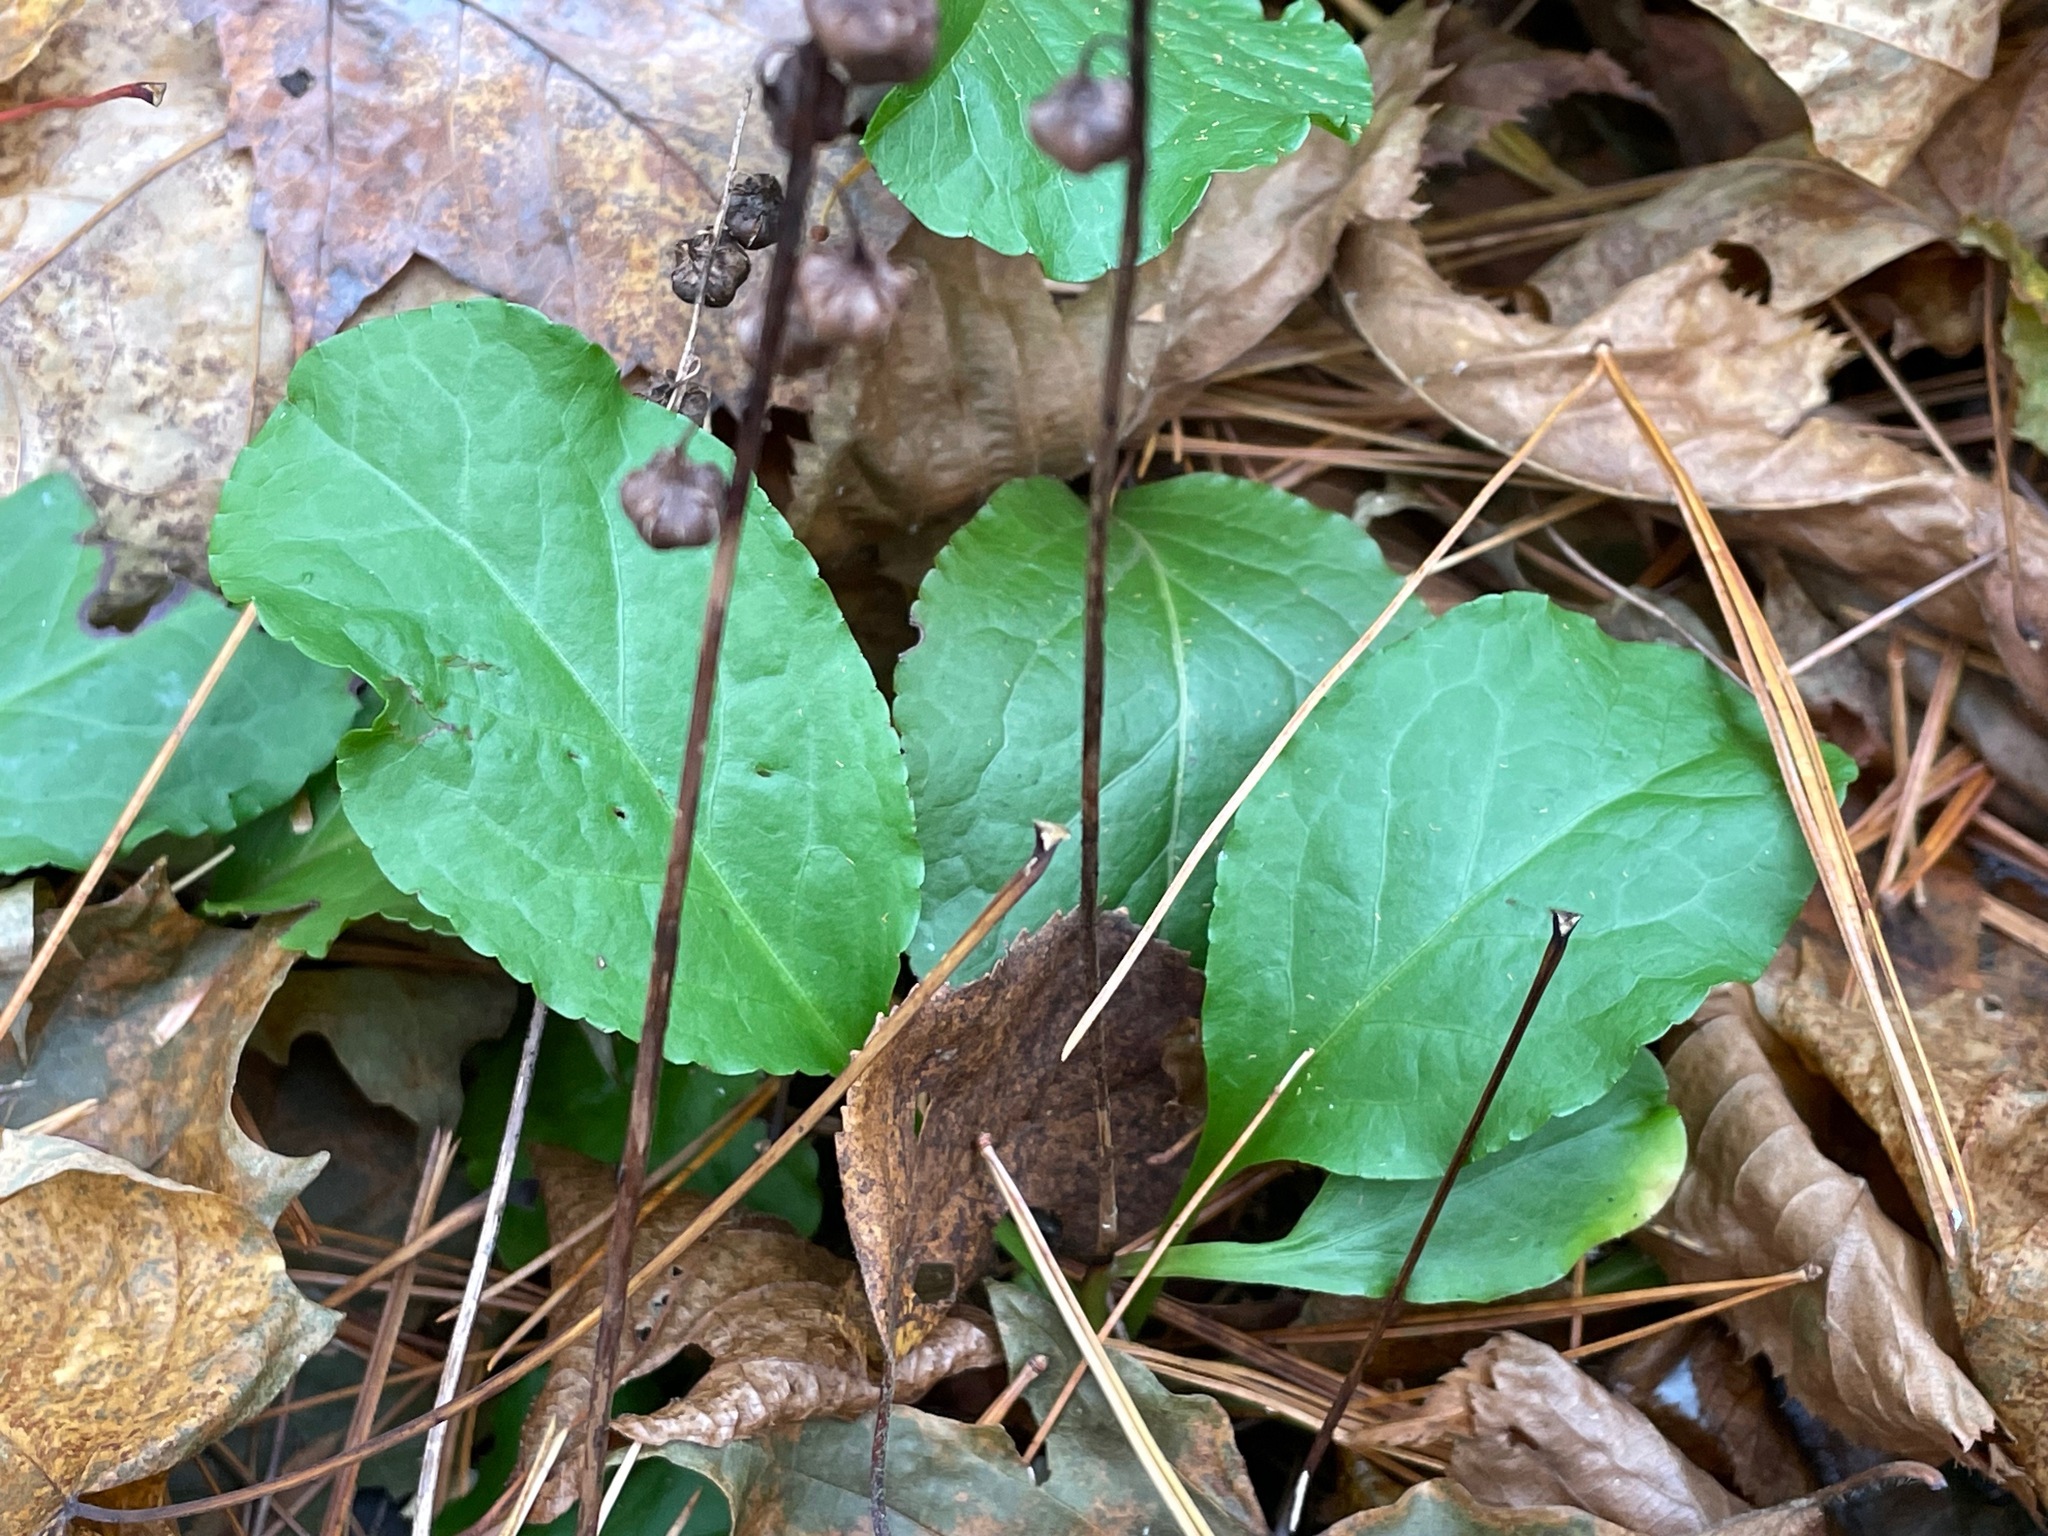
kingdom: Plantae
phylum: Tracheophyta
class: Magnoliopsida
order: Ericales
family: Ericaceae
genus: Pyrola
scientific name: Pyrola elliptica
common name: Shinleaf
